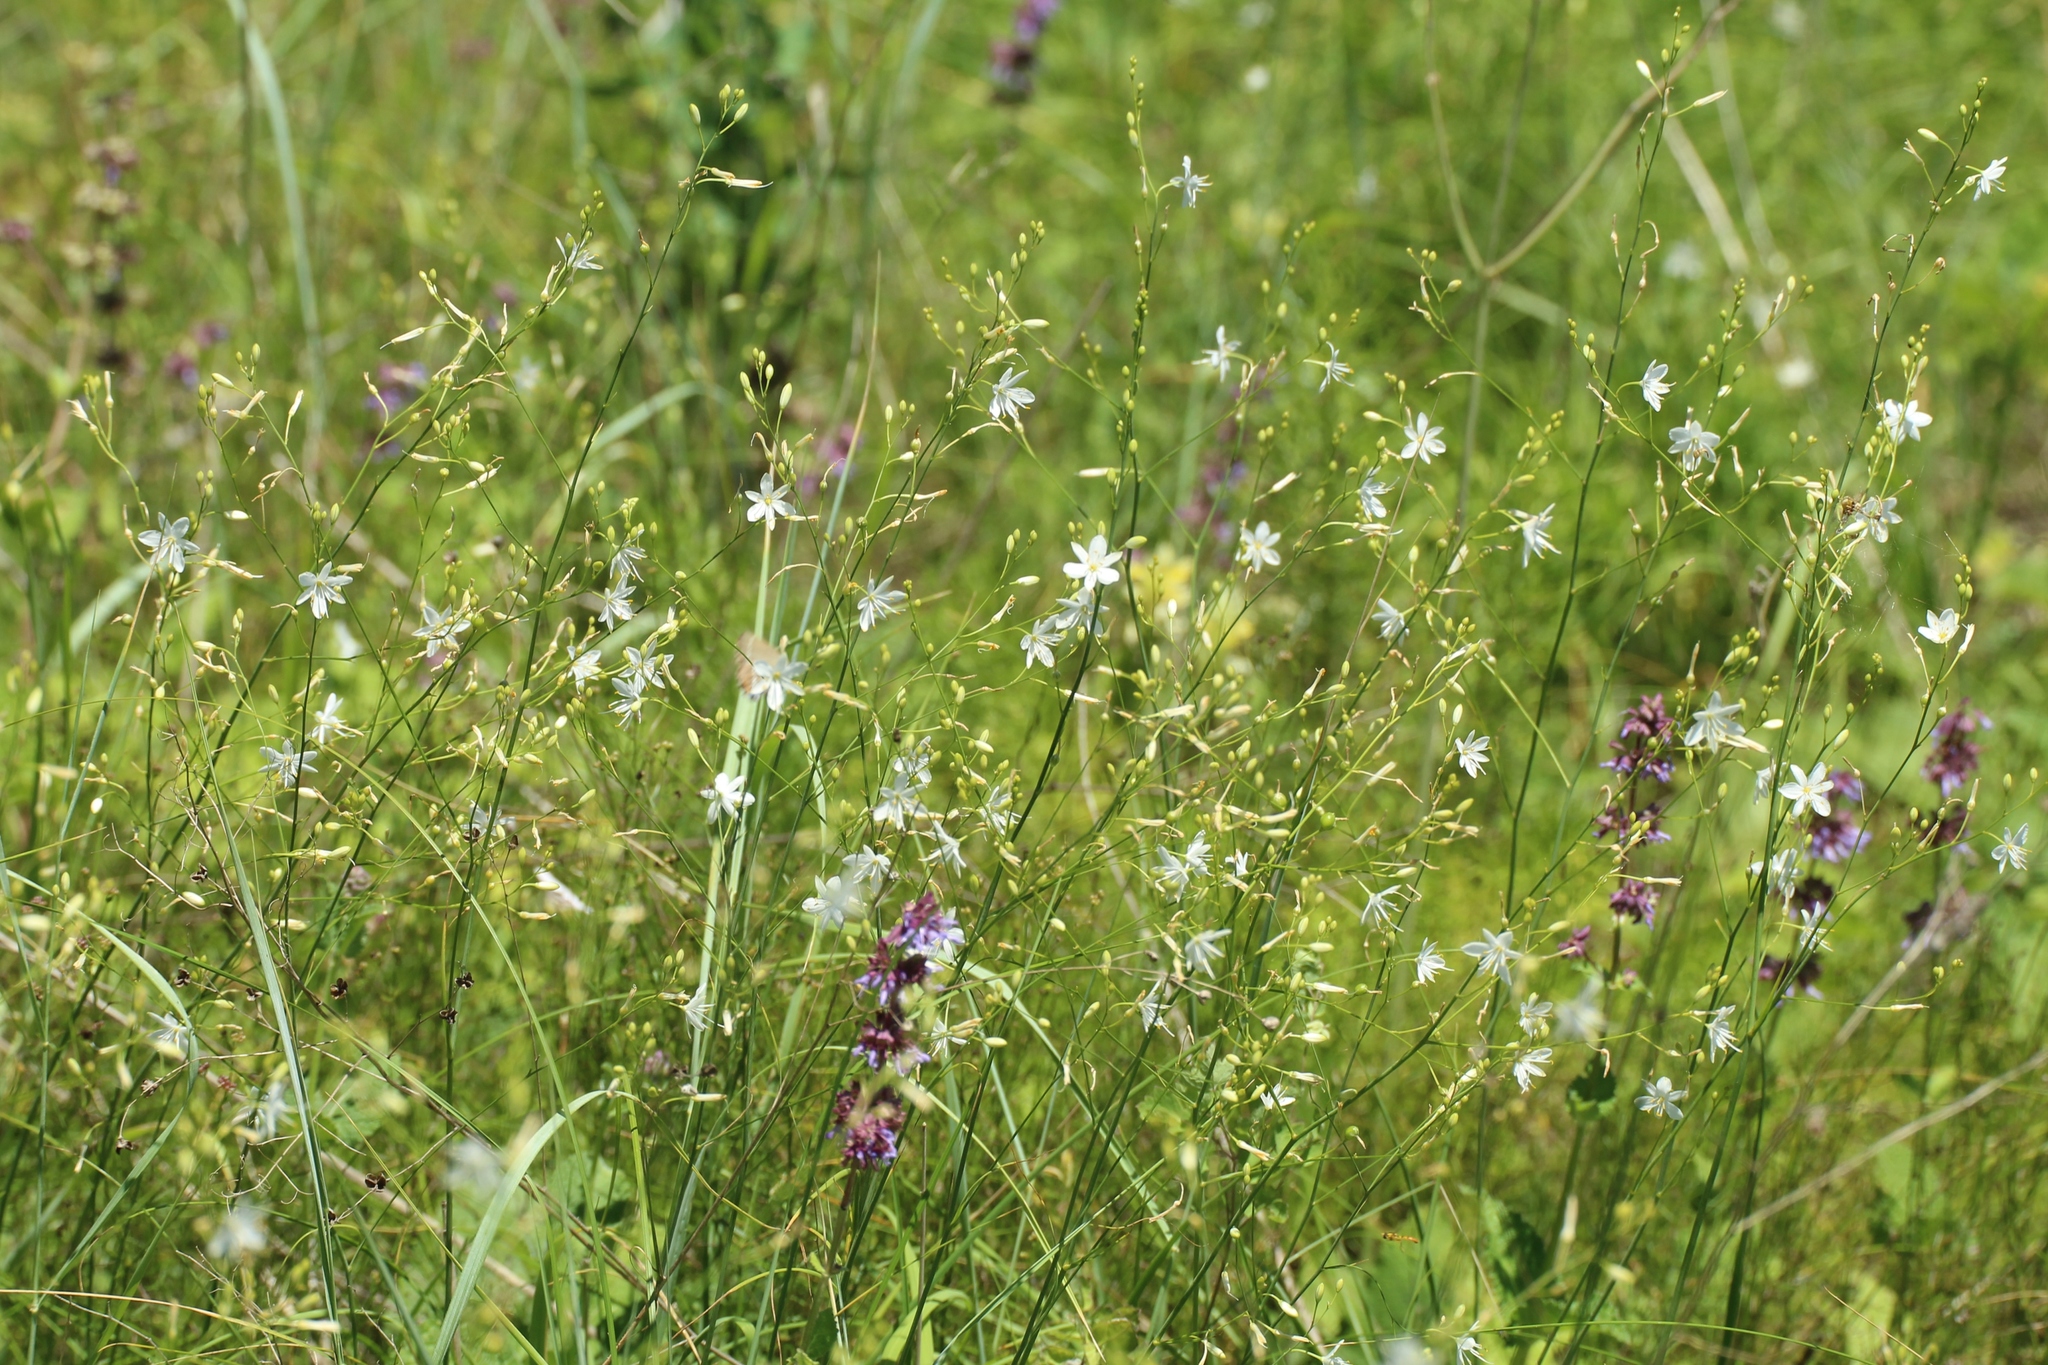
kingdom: Plantae
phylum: Tracheophyta
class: Liliopsida
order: Asparagales
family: Asparagaceae
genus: Anthericum
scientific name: Anthericum ramosum
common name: Branched st. bernard's-lily
